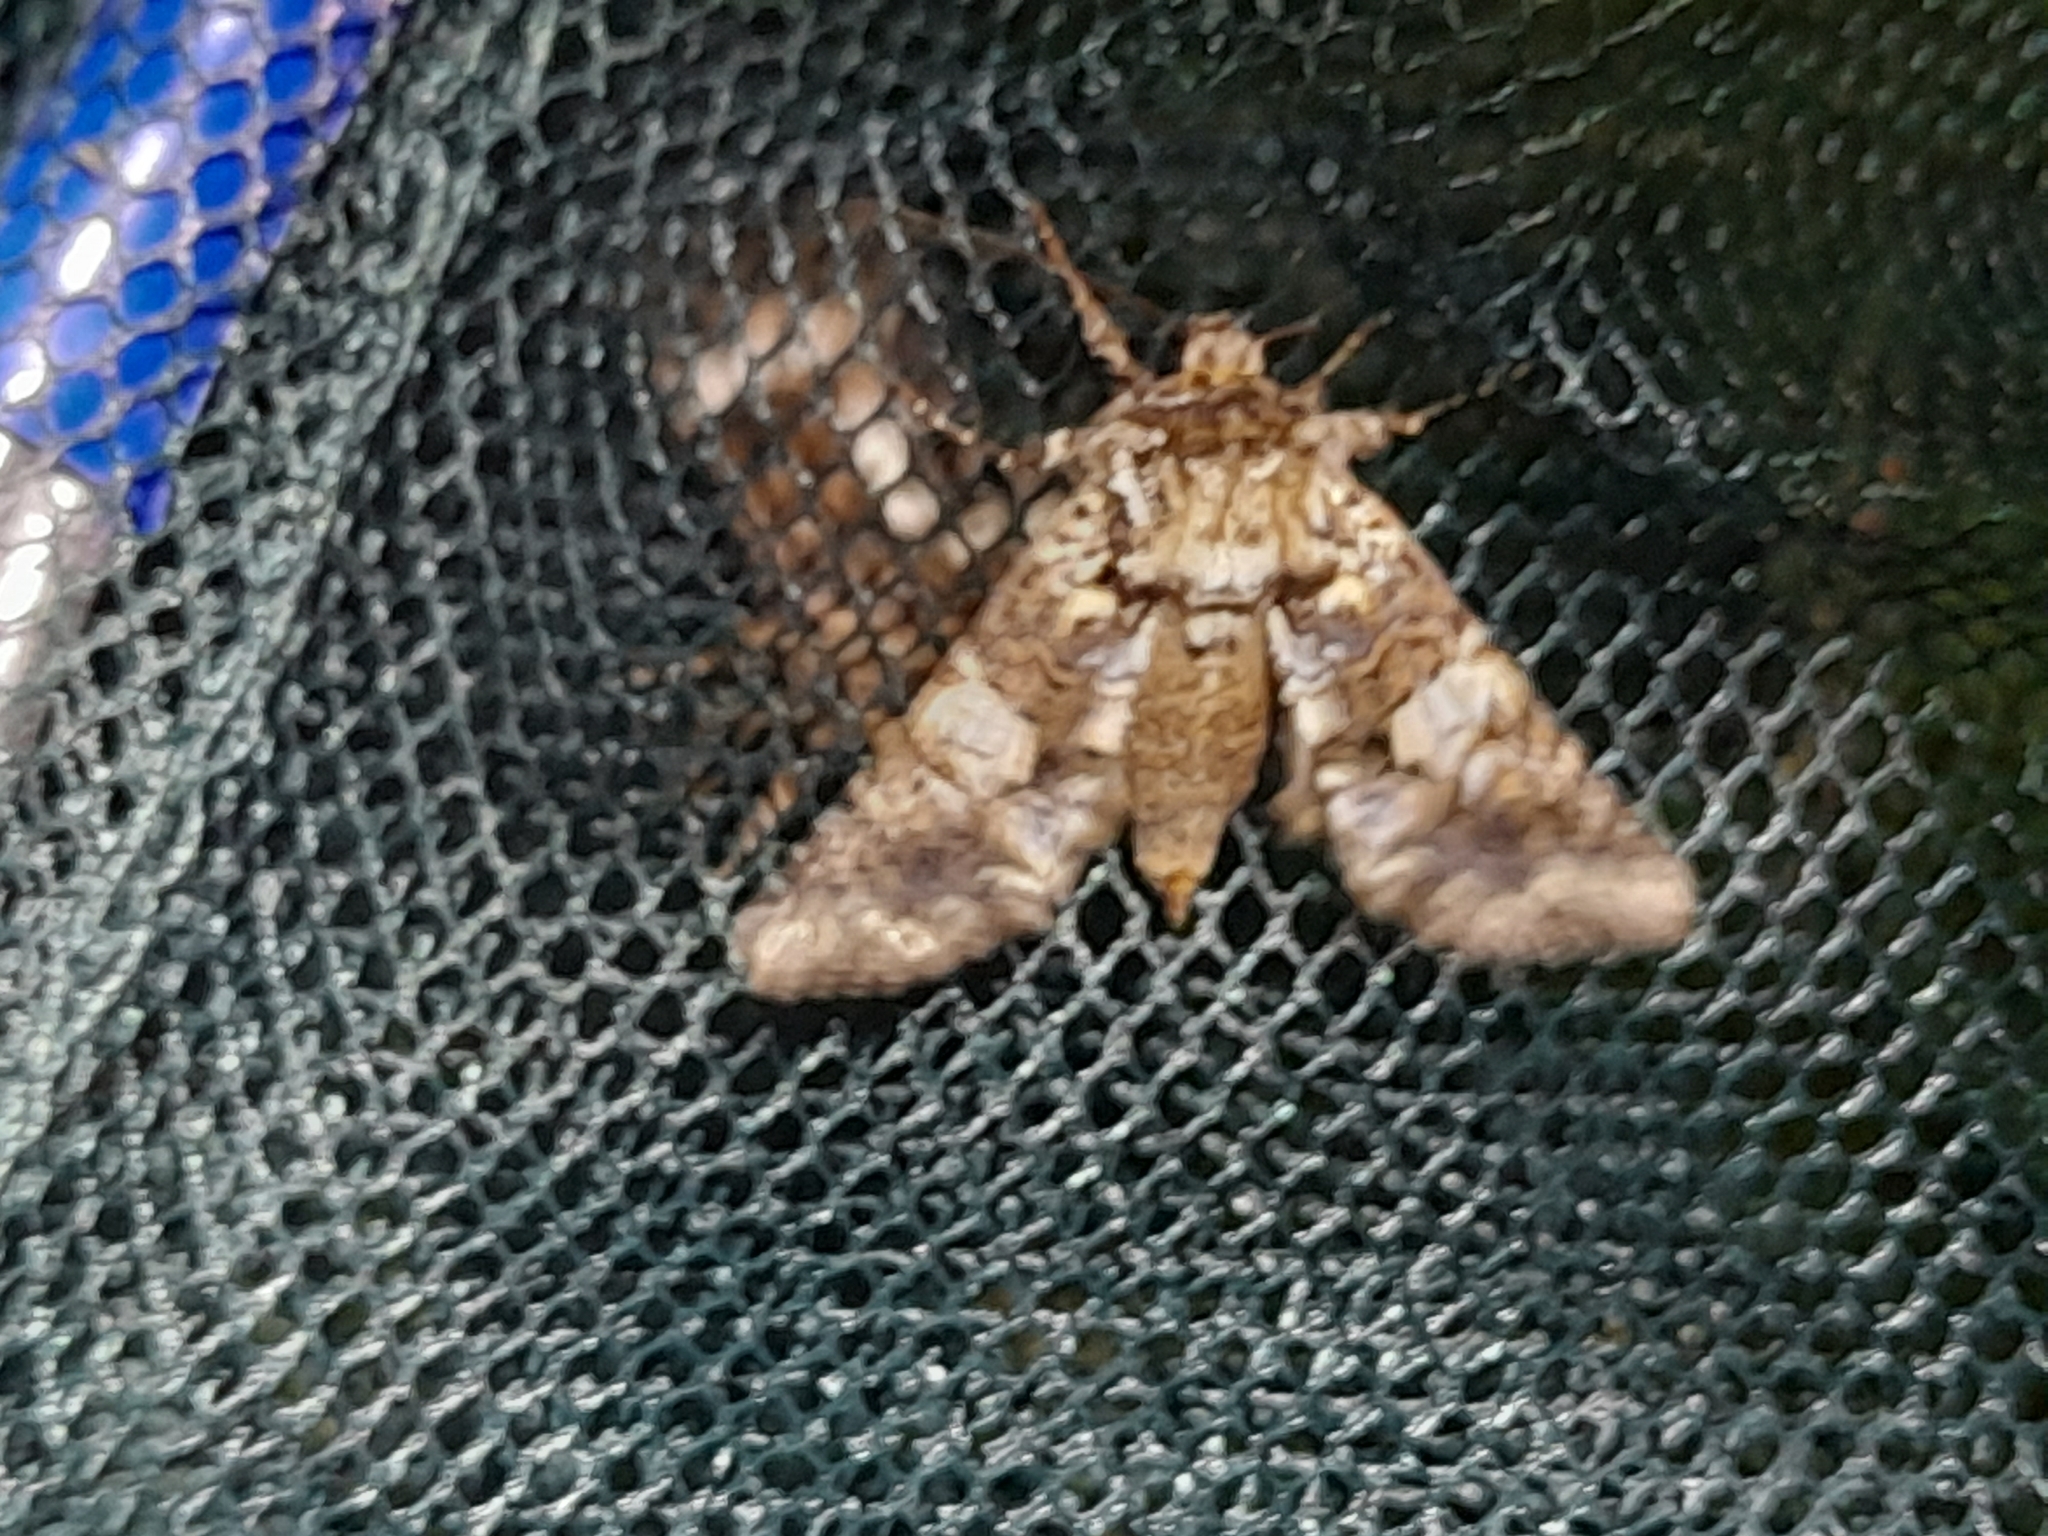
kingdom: Animalia
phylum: Arthropoda
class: Insecta
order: Lepidoptera
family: Noctuidae
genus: Hadena
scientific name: Hadena confusa
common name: Marbled coronet
